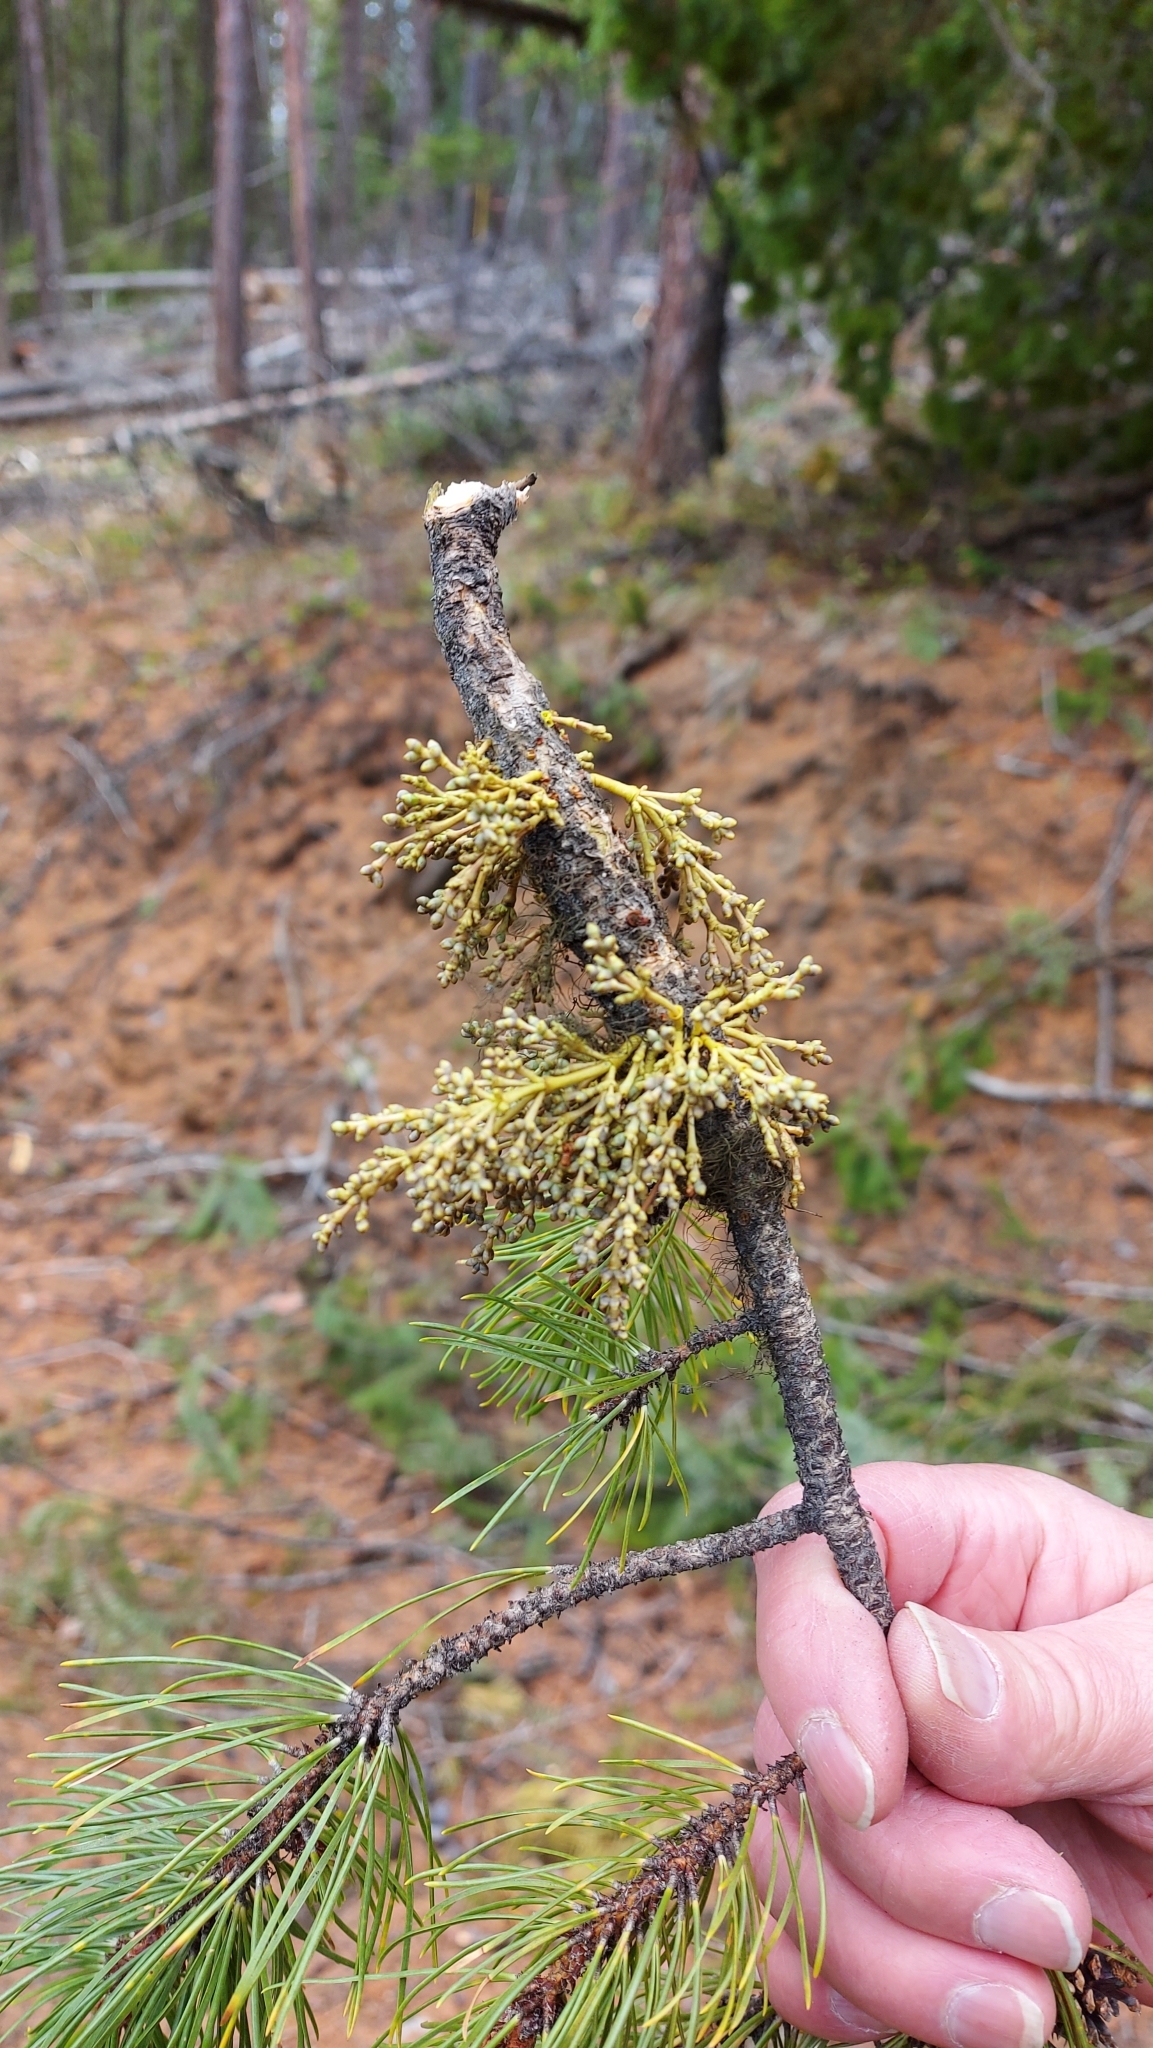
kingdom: Plantae
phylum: Tracheophyta
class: Magnoliopsida
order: Santalales
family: Viscaceae
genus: Arceuthobium
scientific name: Arceuthobium americanum
